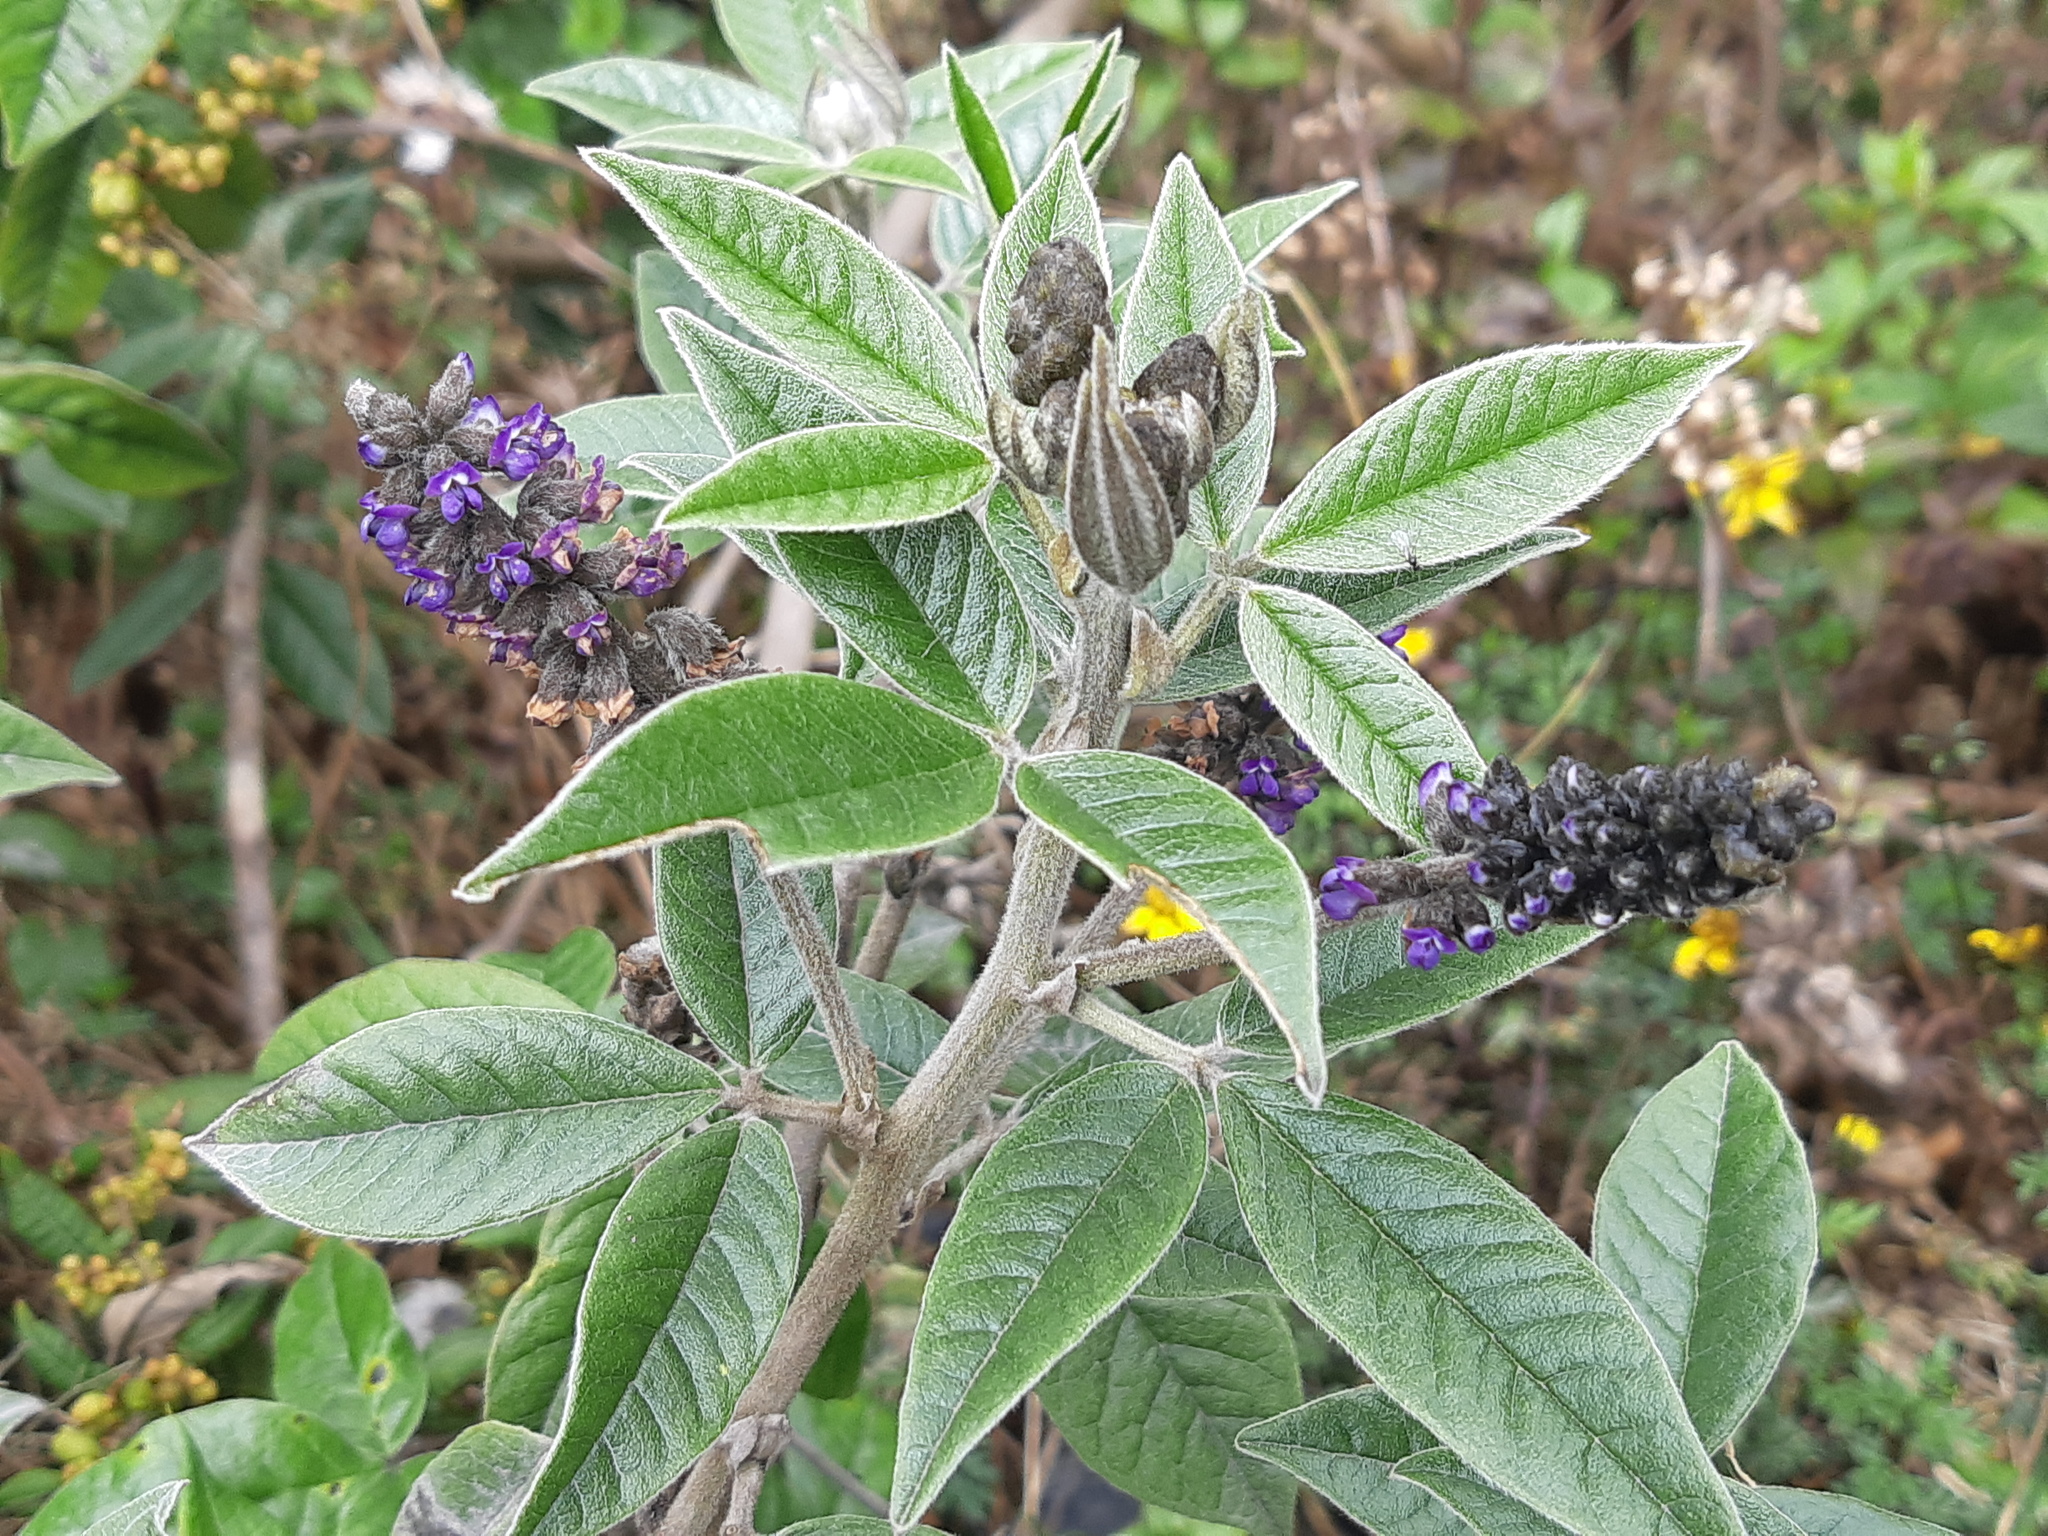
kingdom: Plantae
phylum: Tracheophyta
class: Magnoliopsida
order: Fabales
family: Fabaceae
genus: Psoralea
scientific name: Psoralea Otholobium munyense
